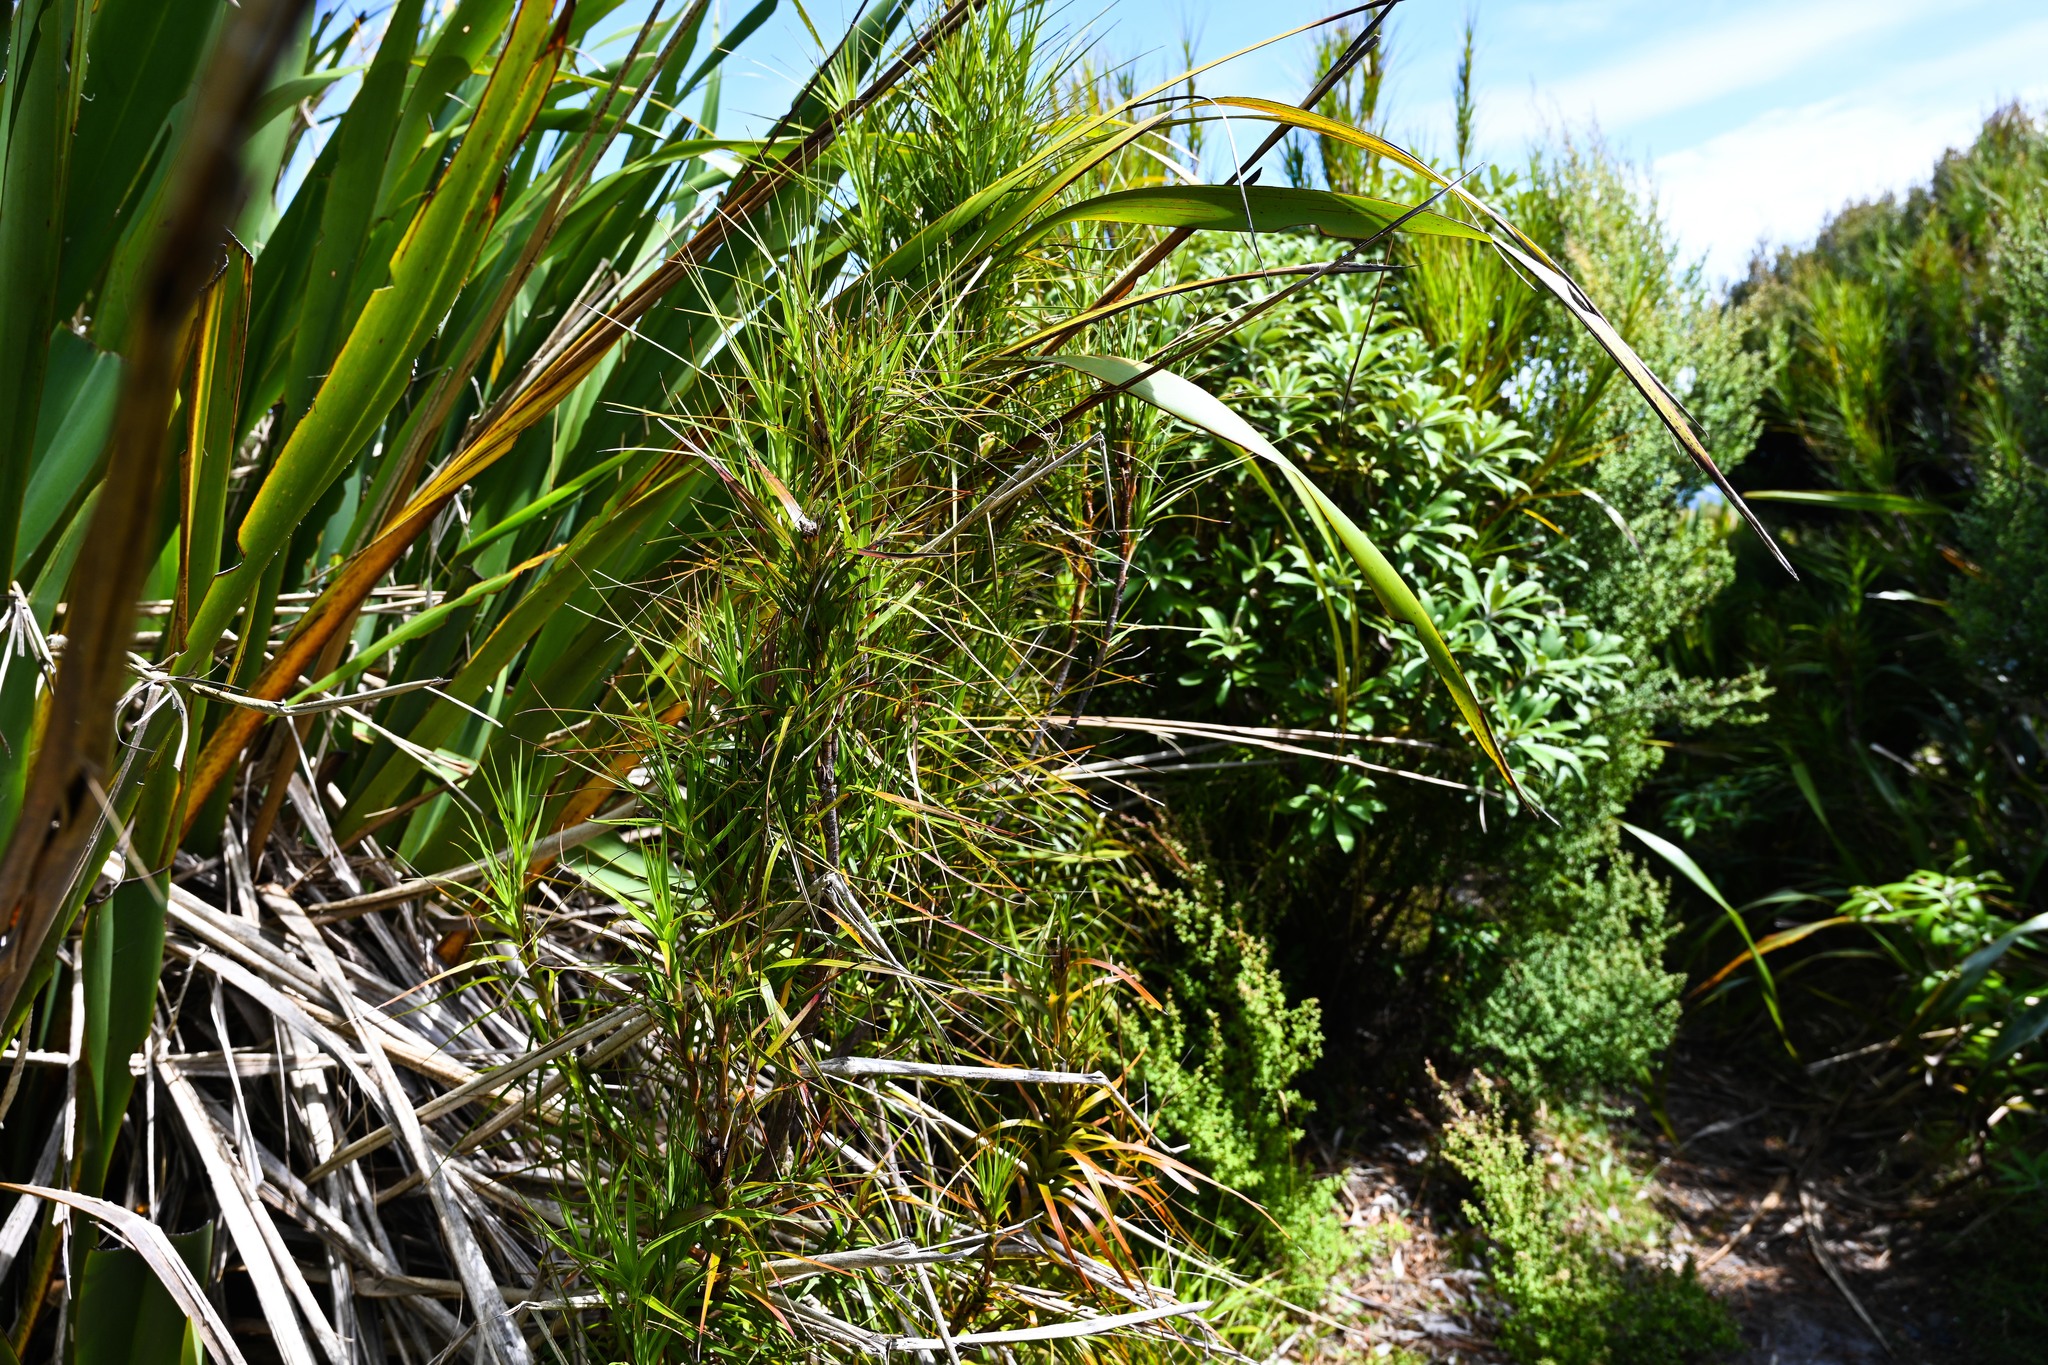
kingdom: Plantae
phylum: Tracheophyta
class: Magnoliopsida
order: Ericales
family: Ericaceae
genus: Dracophyllum
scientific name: Dracophyllum longifolium
